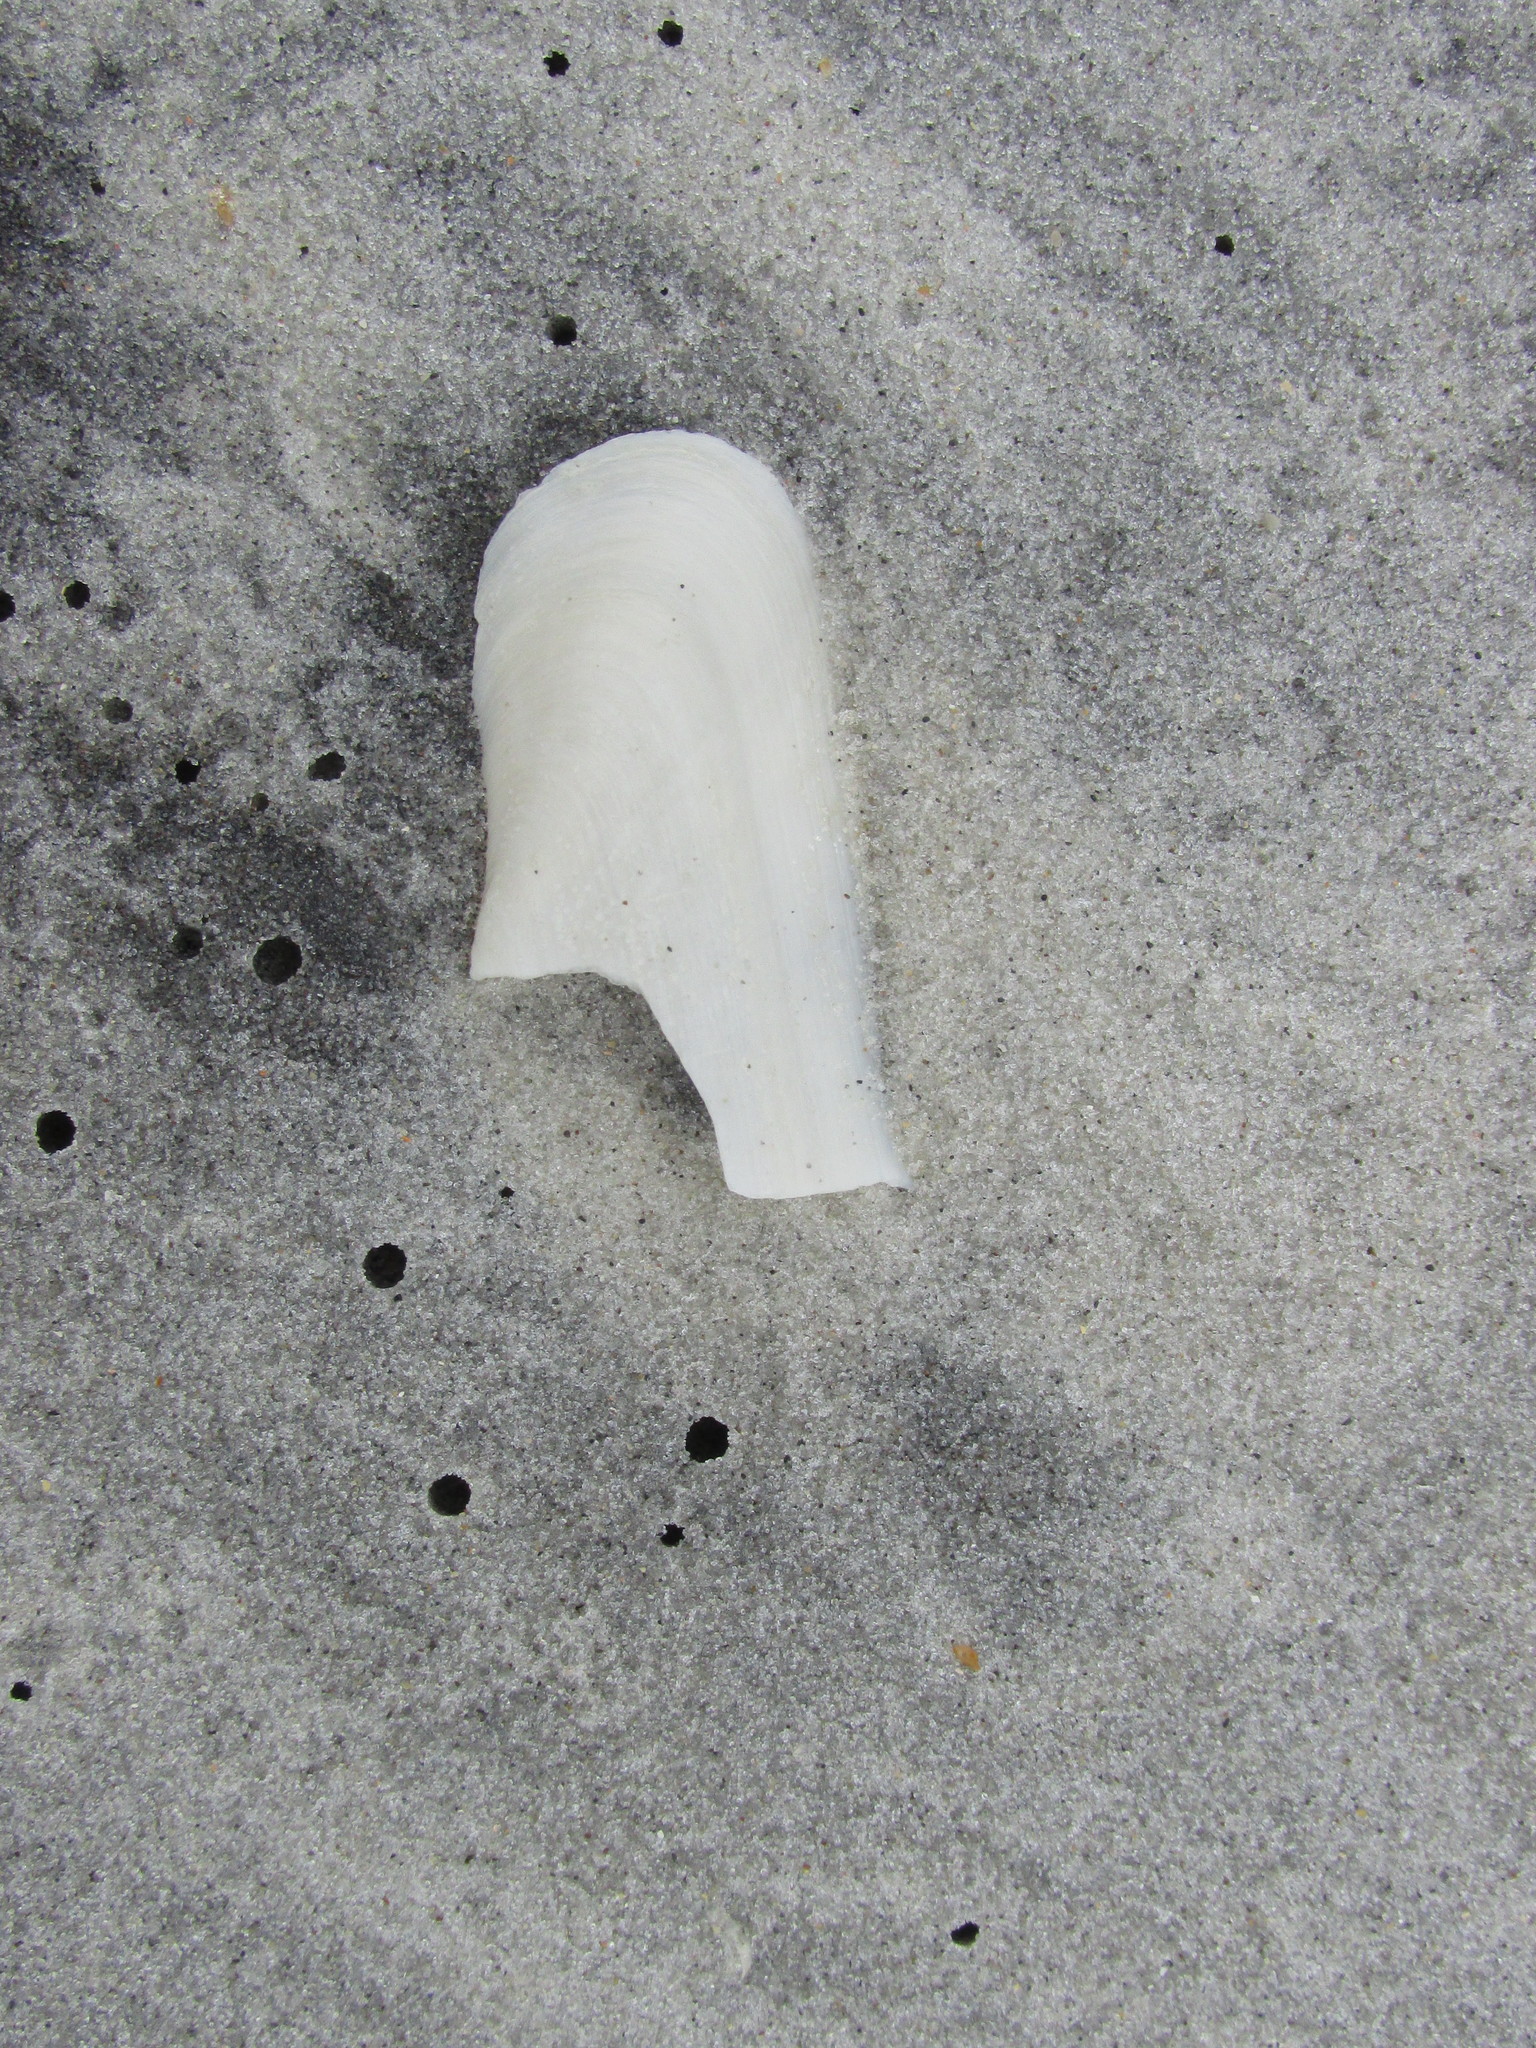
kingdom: Animalia
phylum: Mollusca
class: Bivalvia
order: Cardiida
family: Solecurtidae
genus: Tagelus
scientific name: Tagelus plebeius
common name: Stout tagelus
